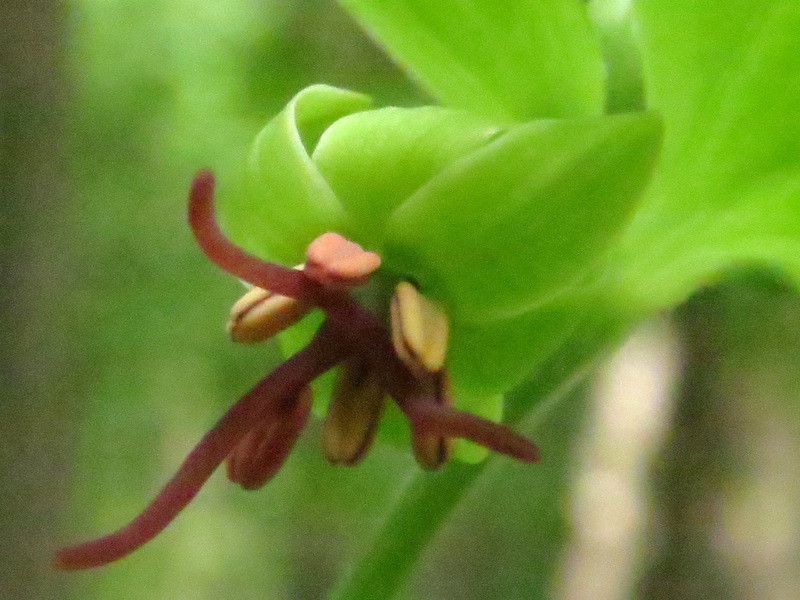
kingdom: Plantae
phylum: Tracheophyta
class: Liliopsida
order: Liliales
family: Liliaceae
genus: Medeola
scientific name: Medeola virginiana
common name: Indian cucumber-root
